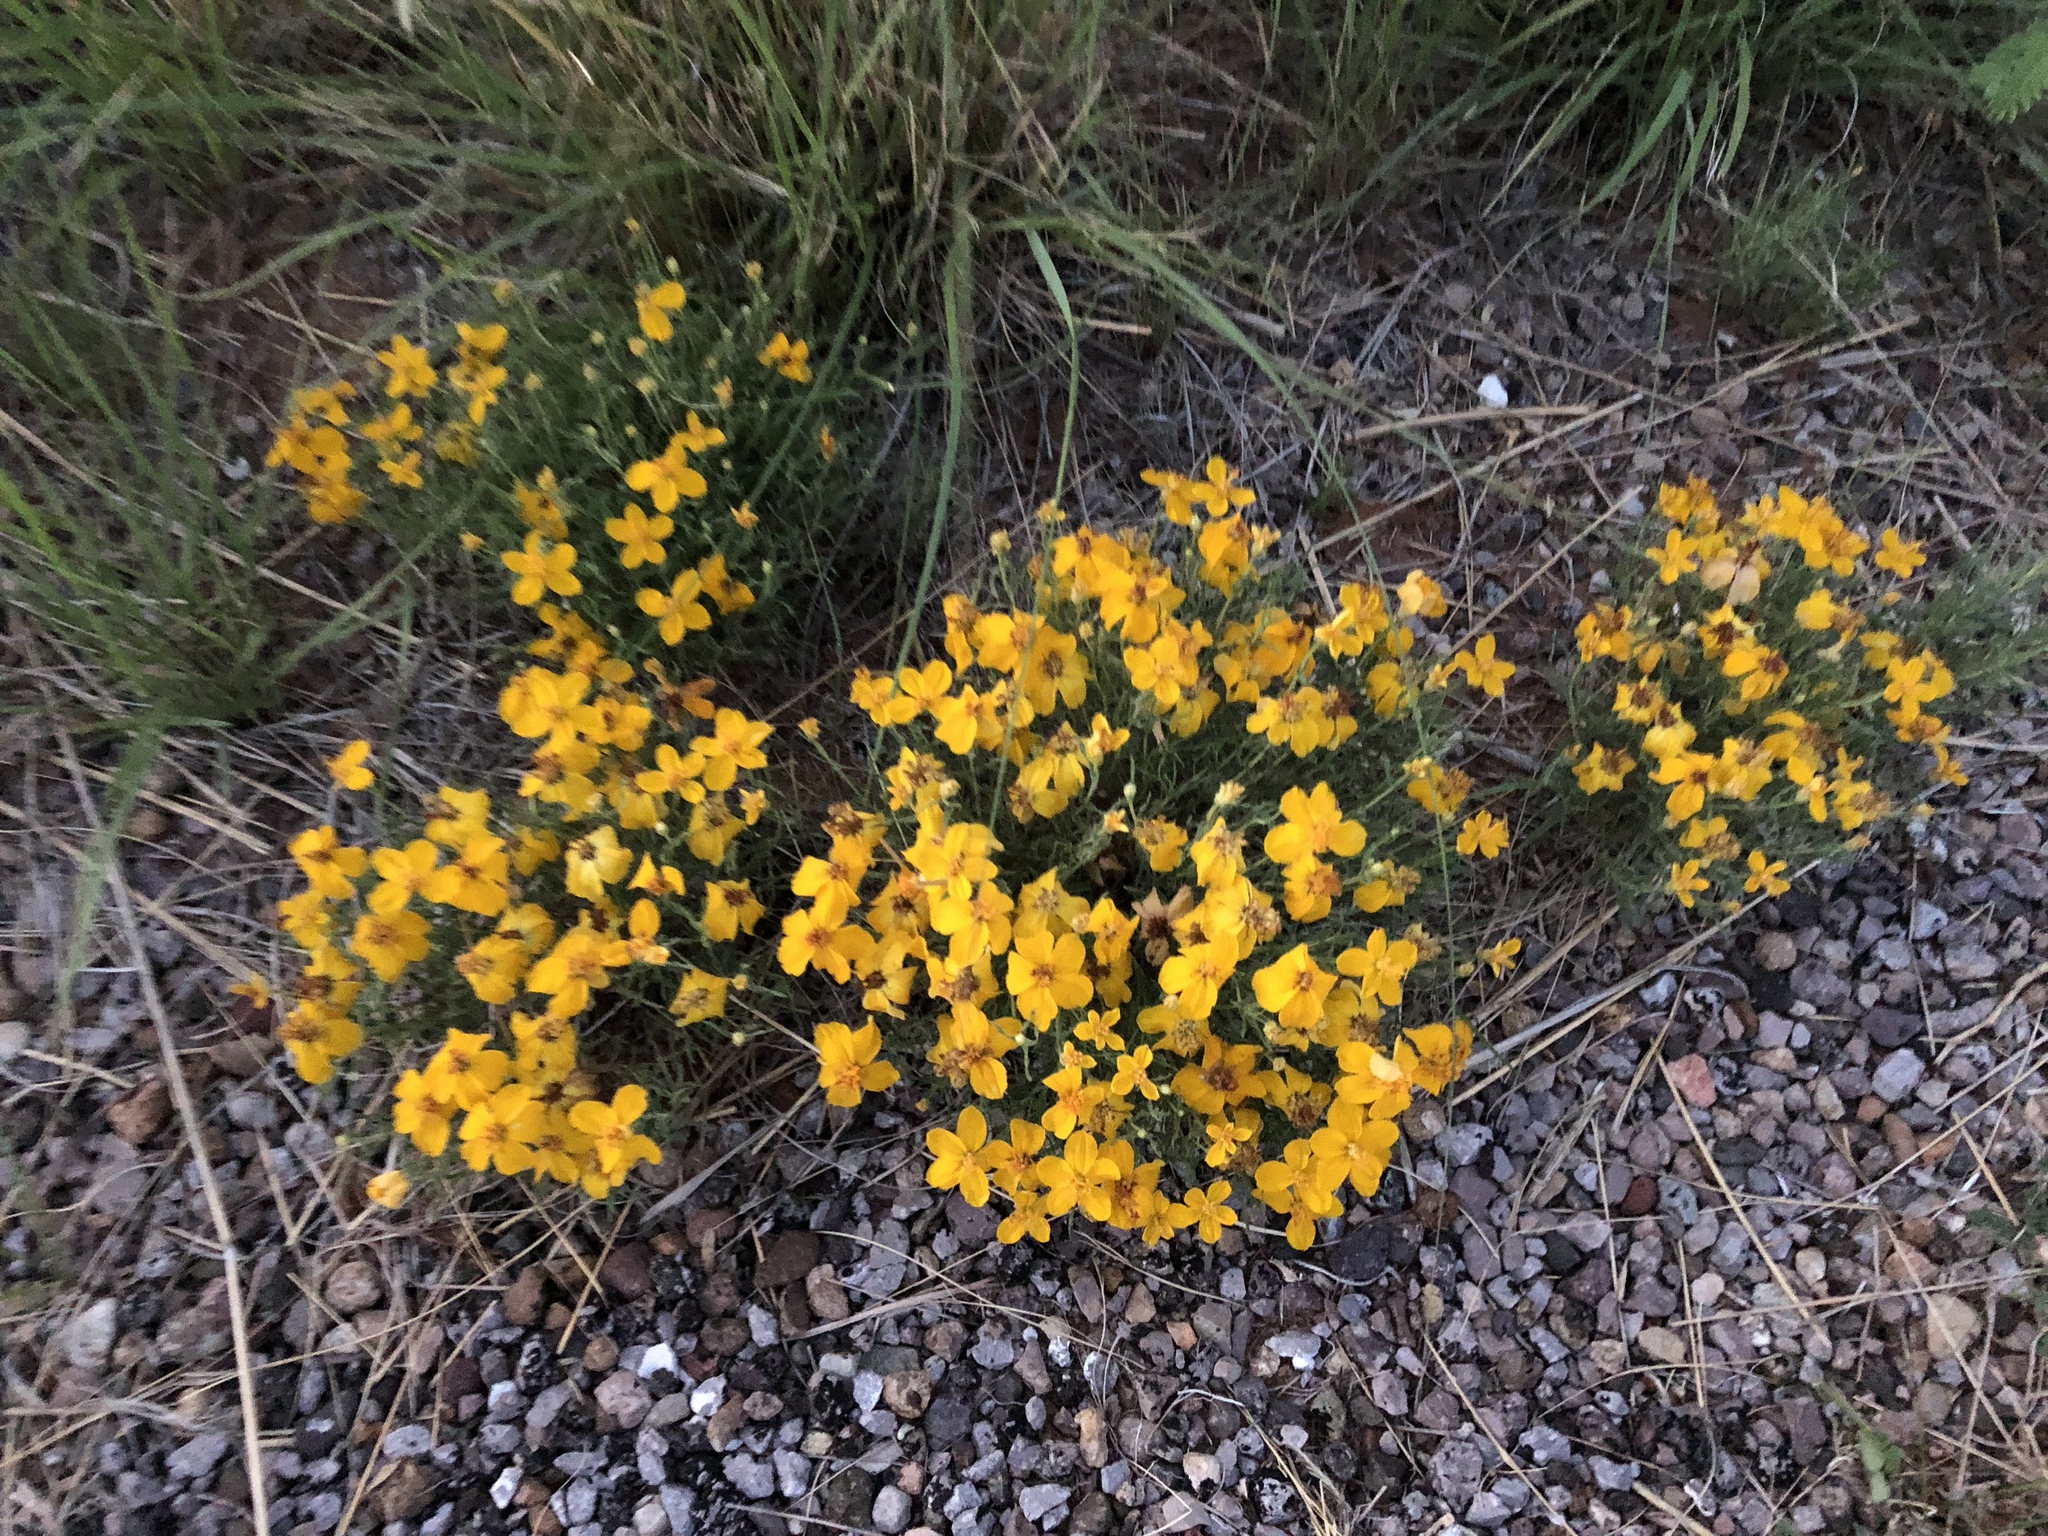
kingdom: Plantae
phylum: Tracheophyta
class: Magnoliopsida
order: Asterales
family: Asteraceae
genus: Zinnia
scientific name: Zinnia grandiflora
